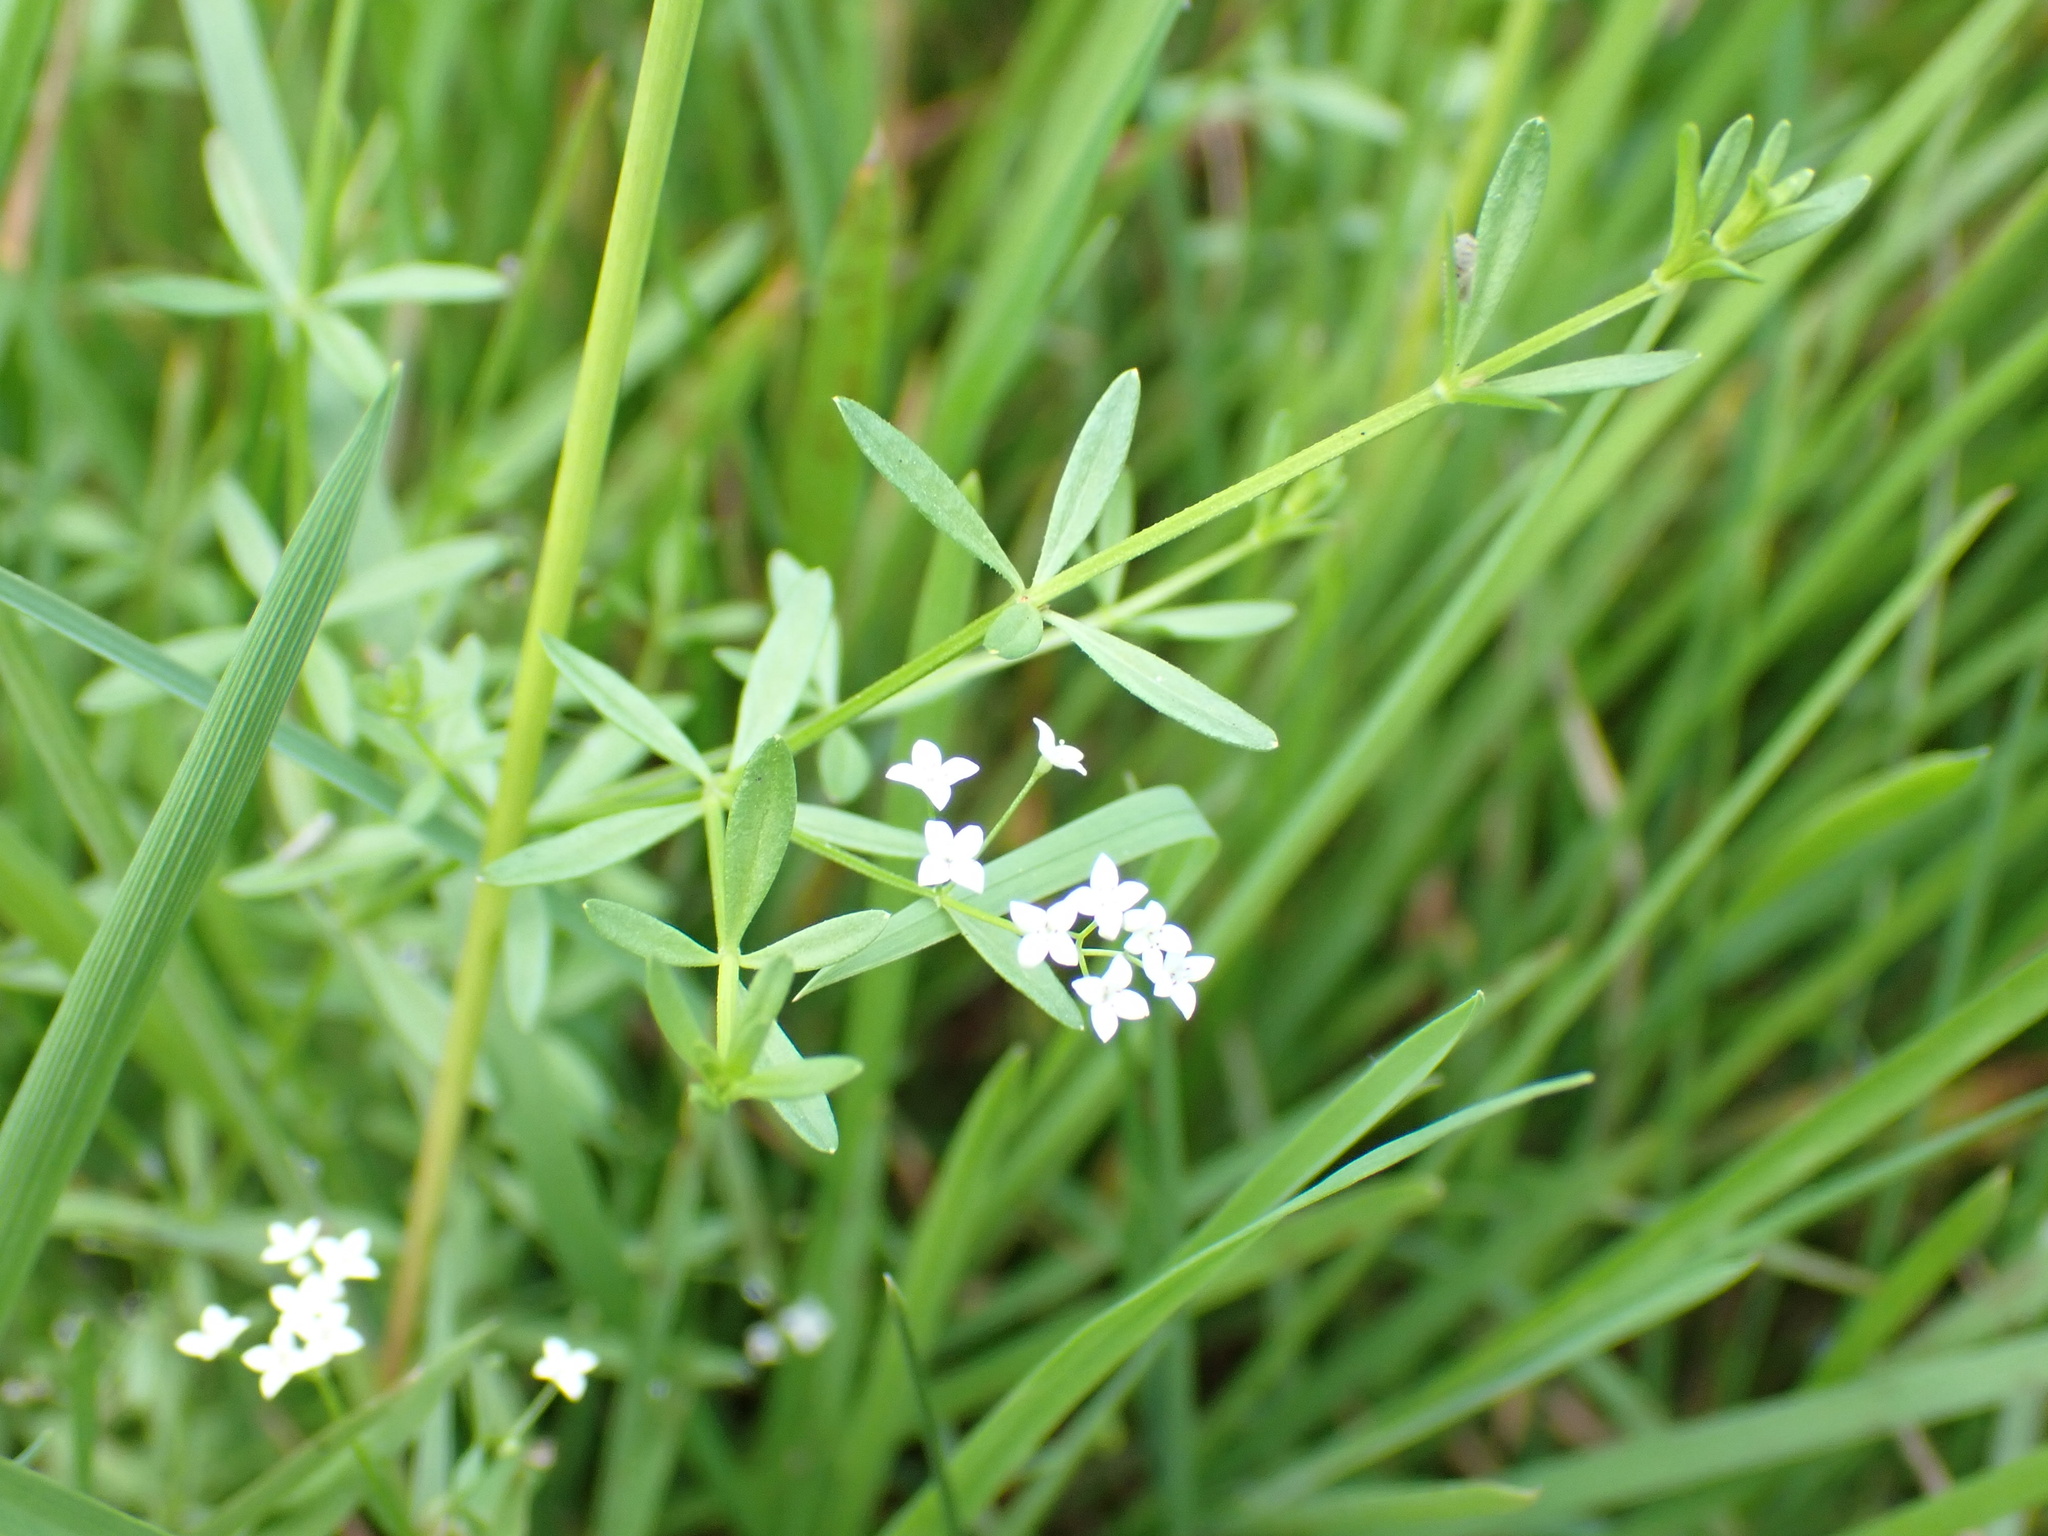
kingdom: Plantae
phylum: Tracheophyta
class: Magnoliopsida
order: Gentianales
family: Rubiaceae
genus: Galium
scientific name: Galium palustre
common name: Common marsh-bedstraw
